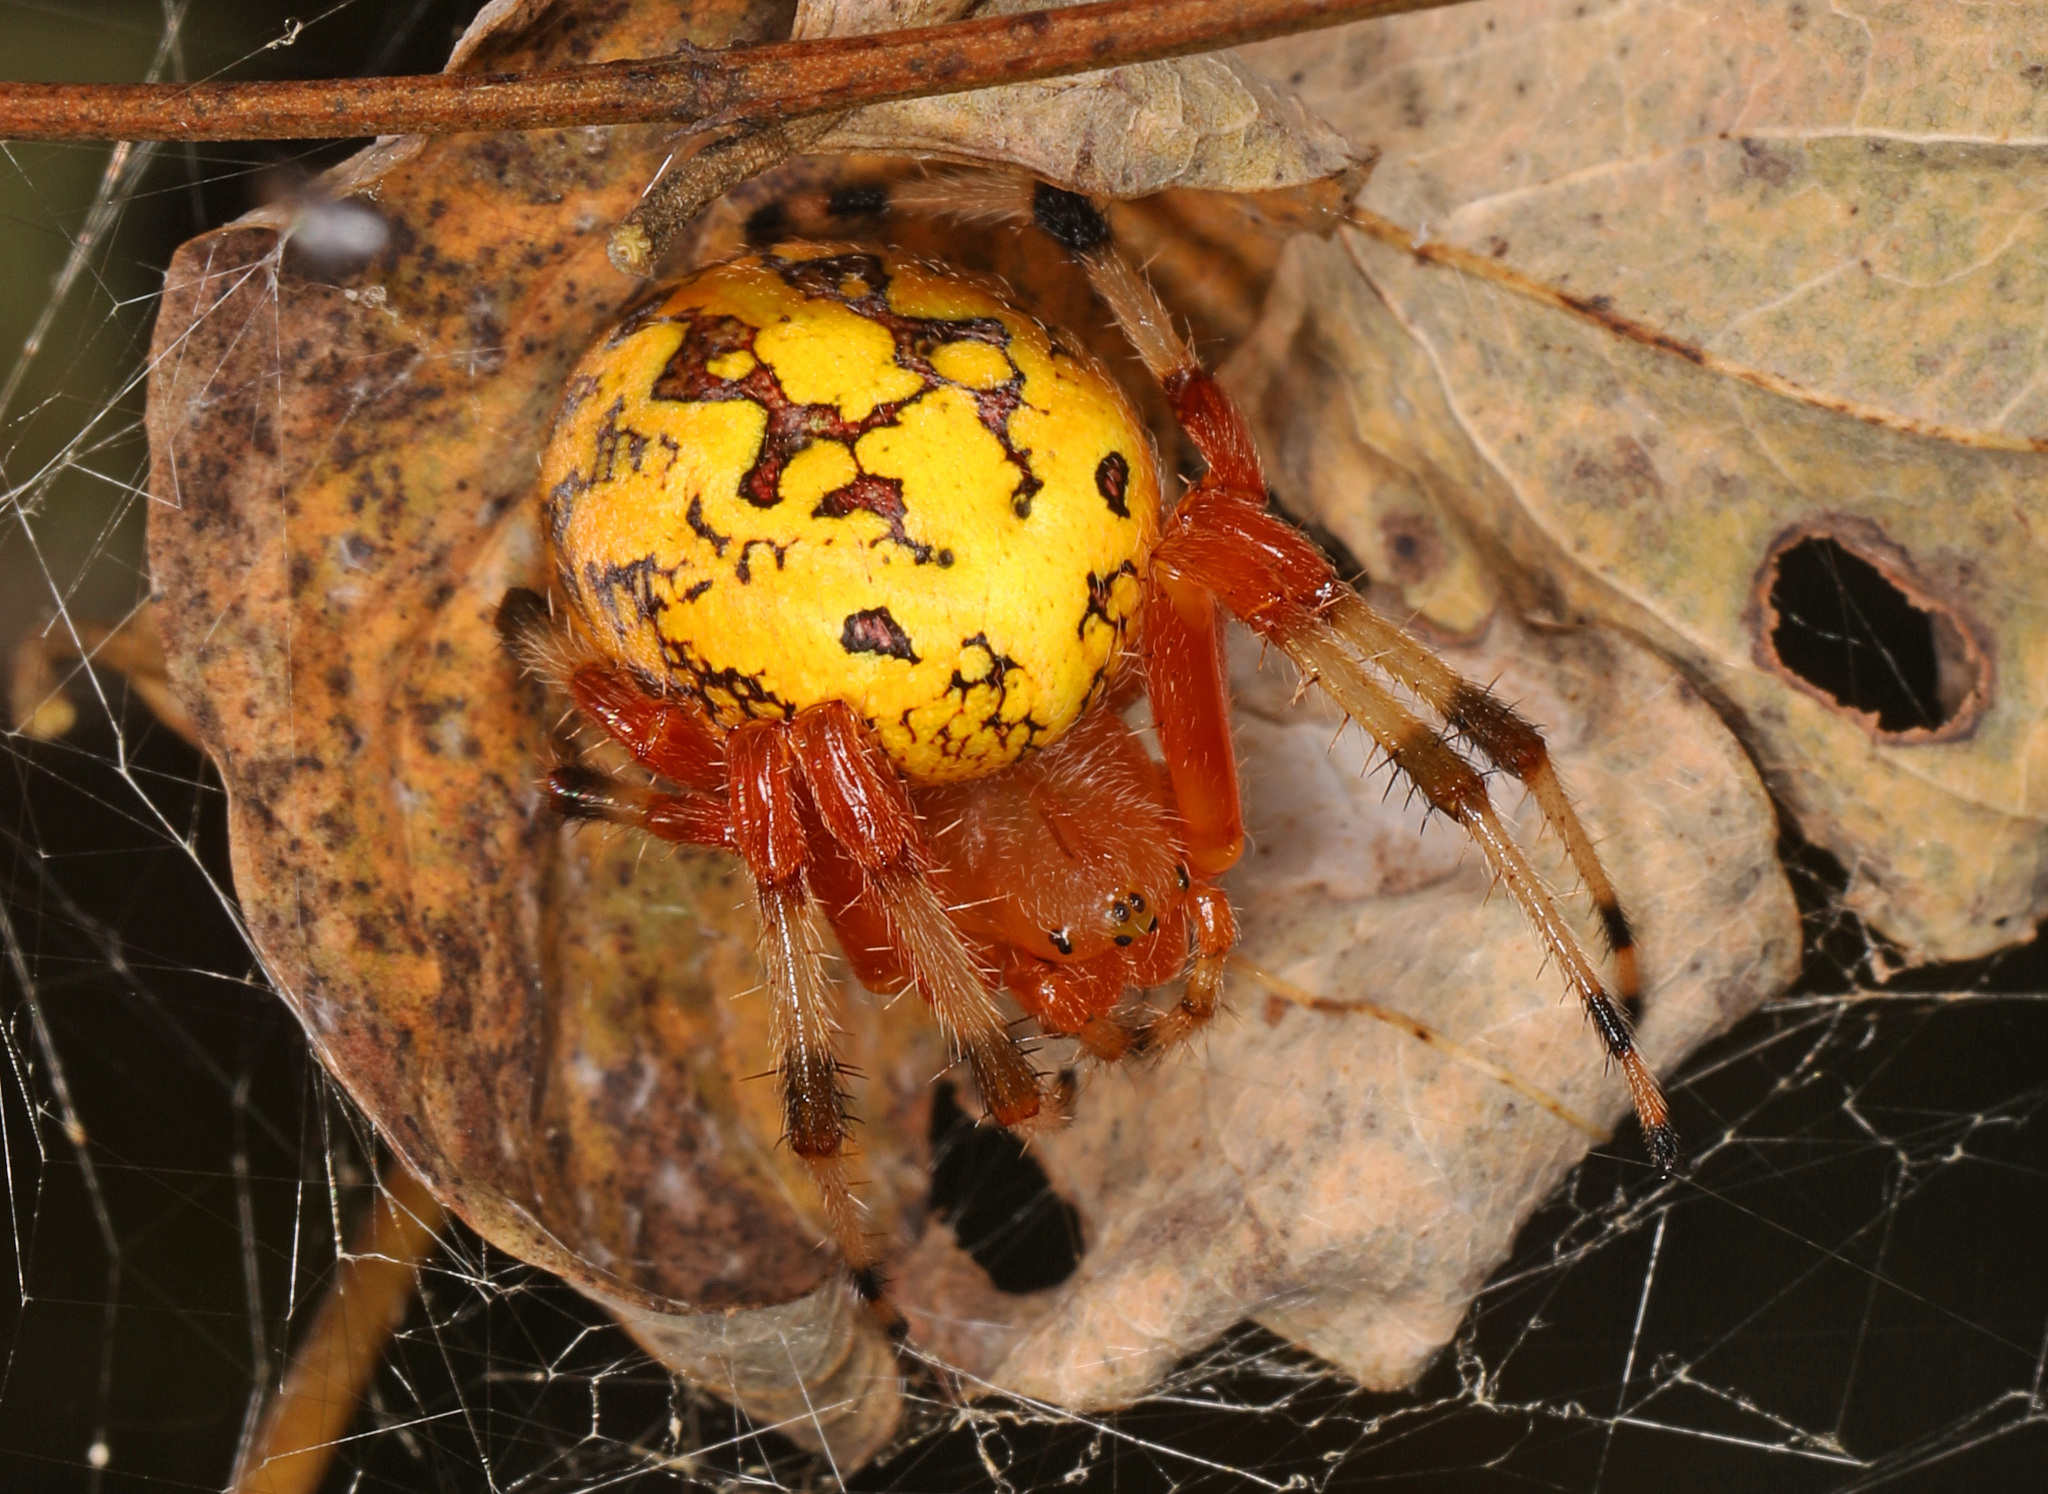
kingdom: Animalia
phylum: Arthropoda
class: Arachnida
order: Araneae
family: Araneidae
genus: Araneus
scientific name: Araneus marmoreus
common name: Marbled orbweaver
